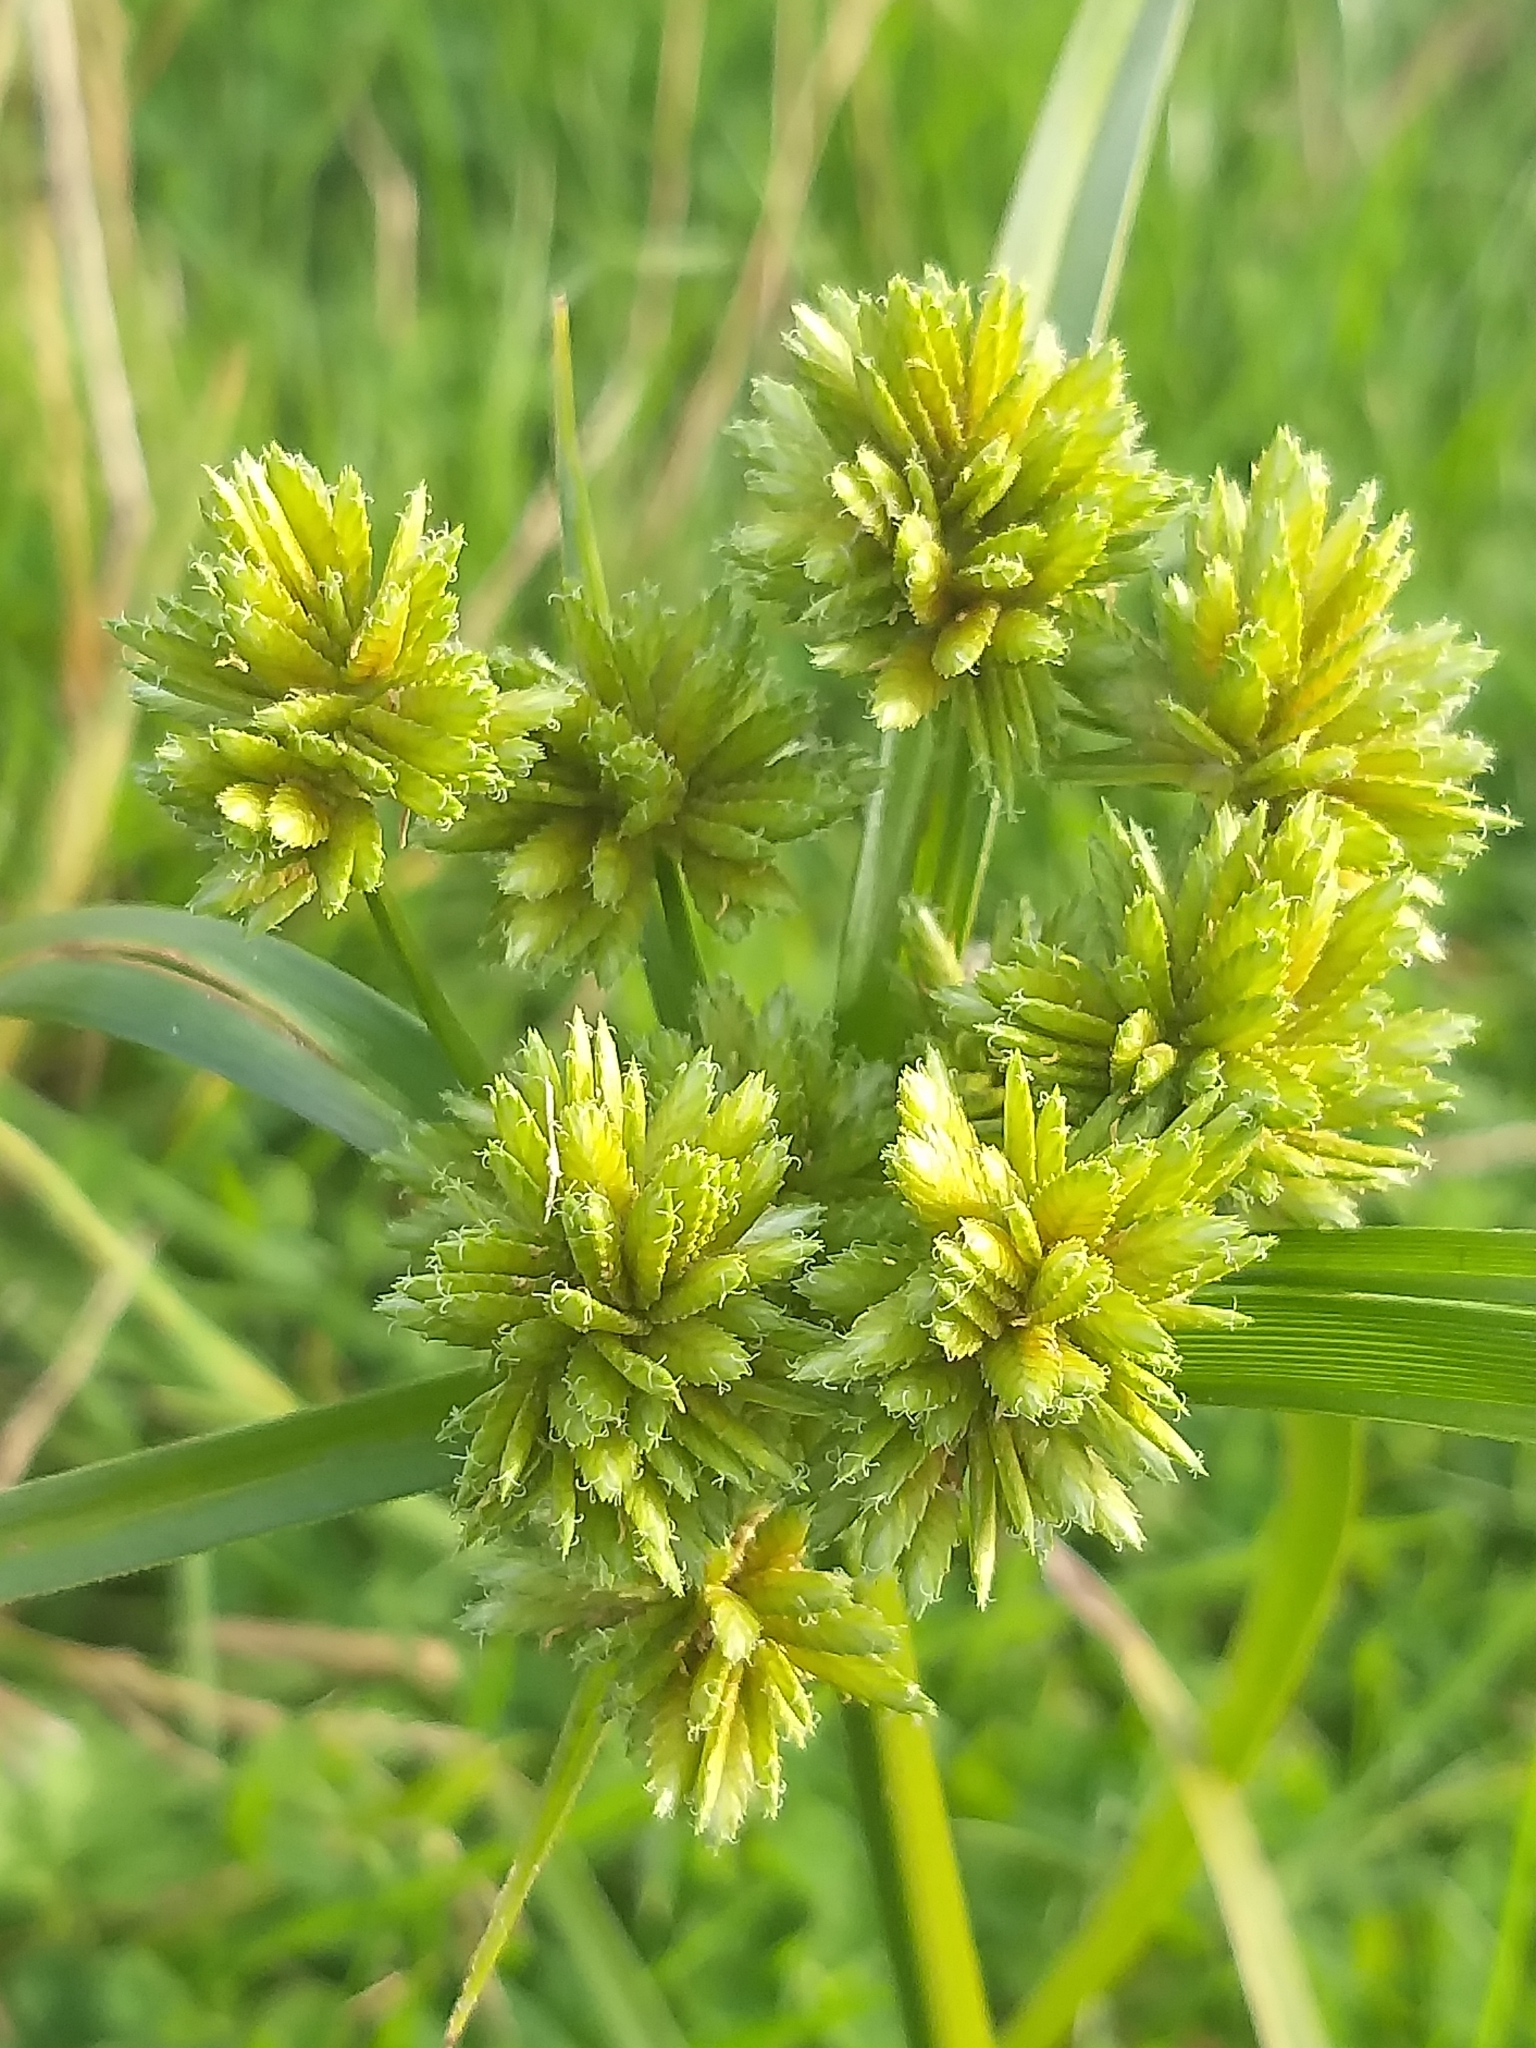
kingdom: Plantae
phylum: Tracheophyta
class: Liliopsida
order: Poales
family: Cyperaceae
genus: Cyperus
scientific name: Cyperus eragrostis
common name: Tall flatsedge
